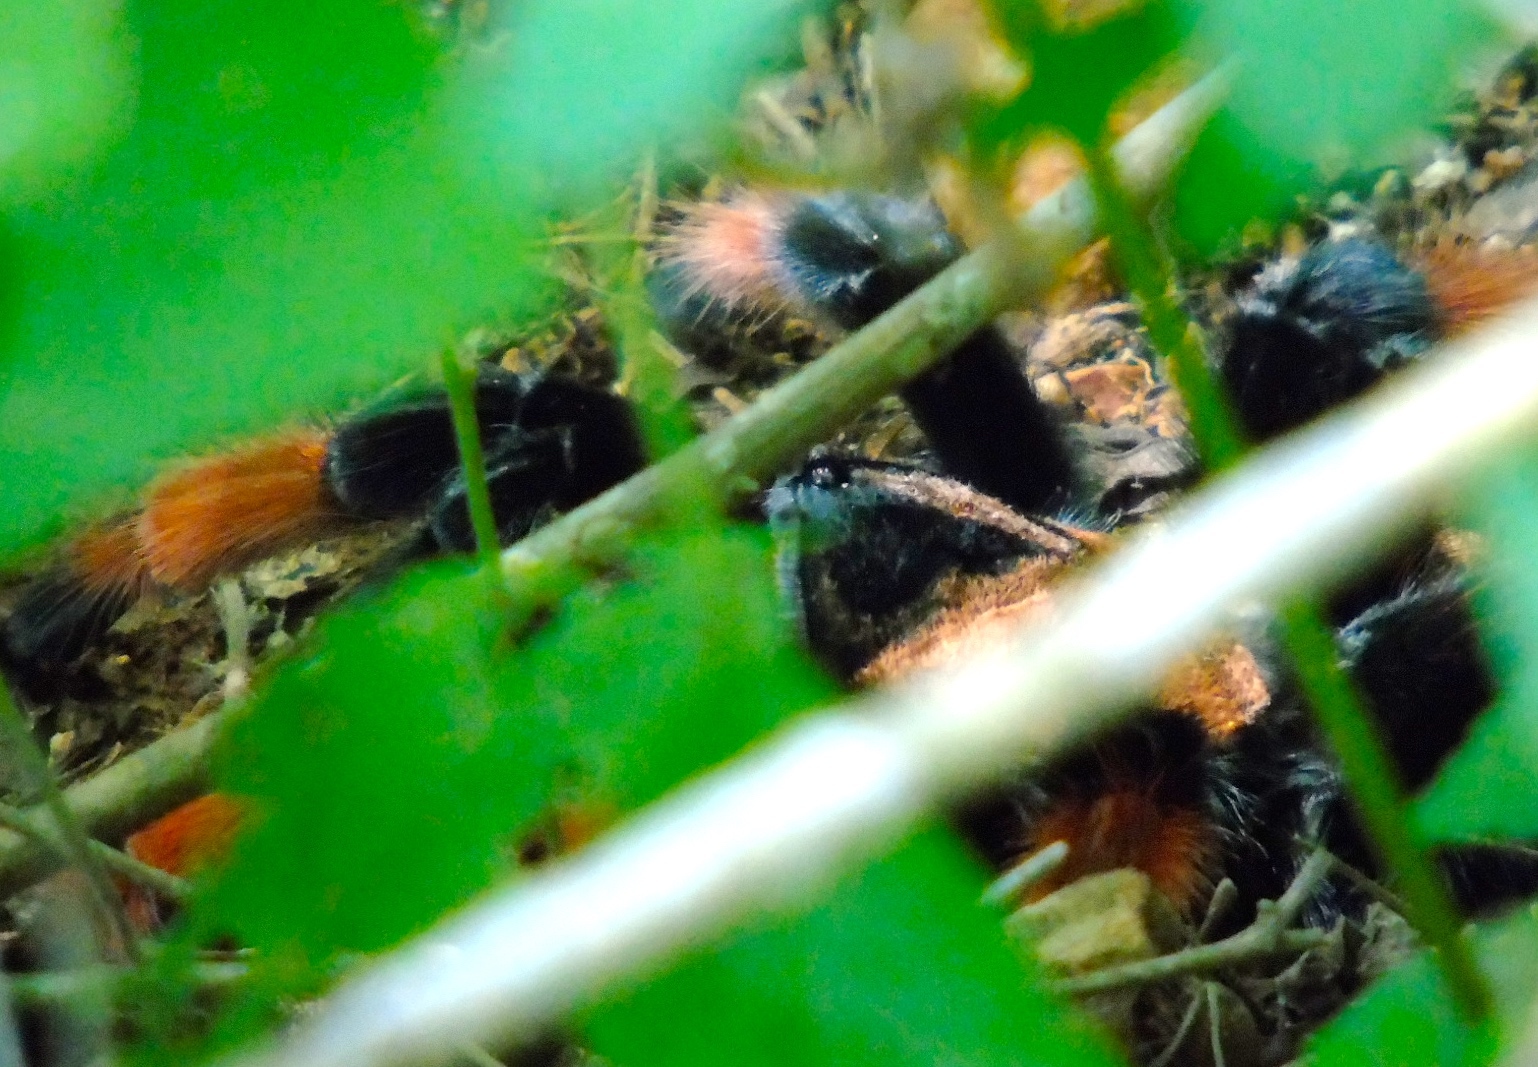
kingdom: Animalia
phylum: Arthropoda
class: Arachnida
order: Araneae
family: Theraphosidae
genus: Brachypelma
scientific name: Brachypelma emilia
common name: Mexican redleg
